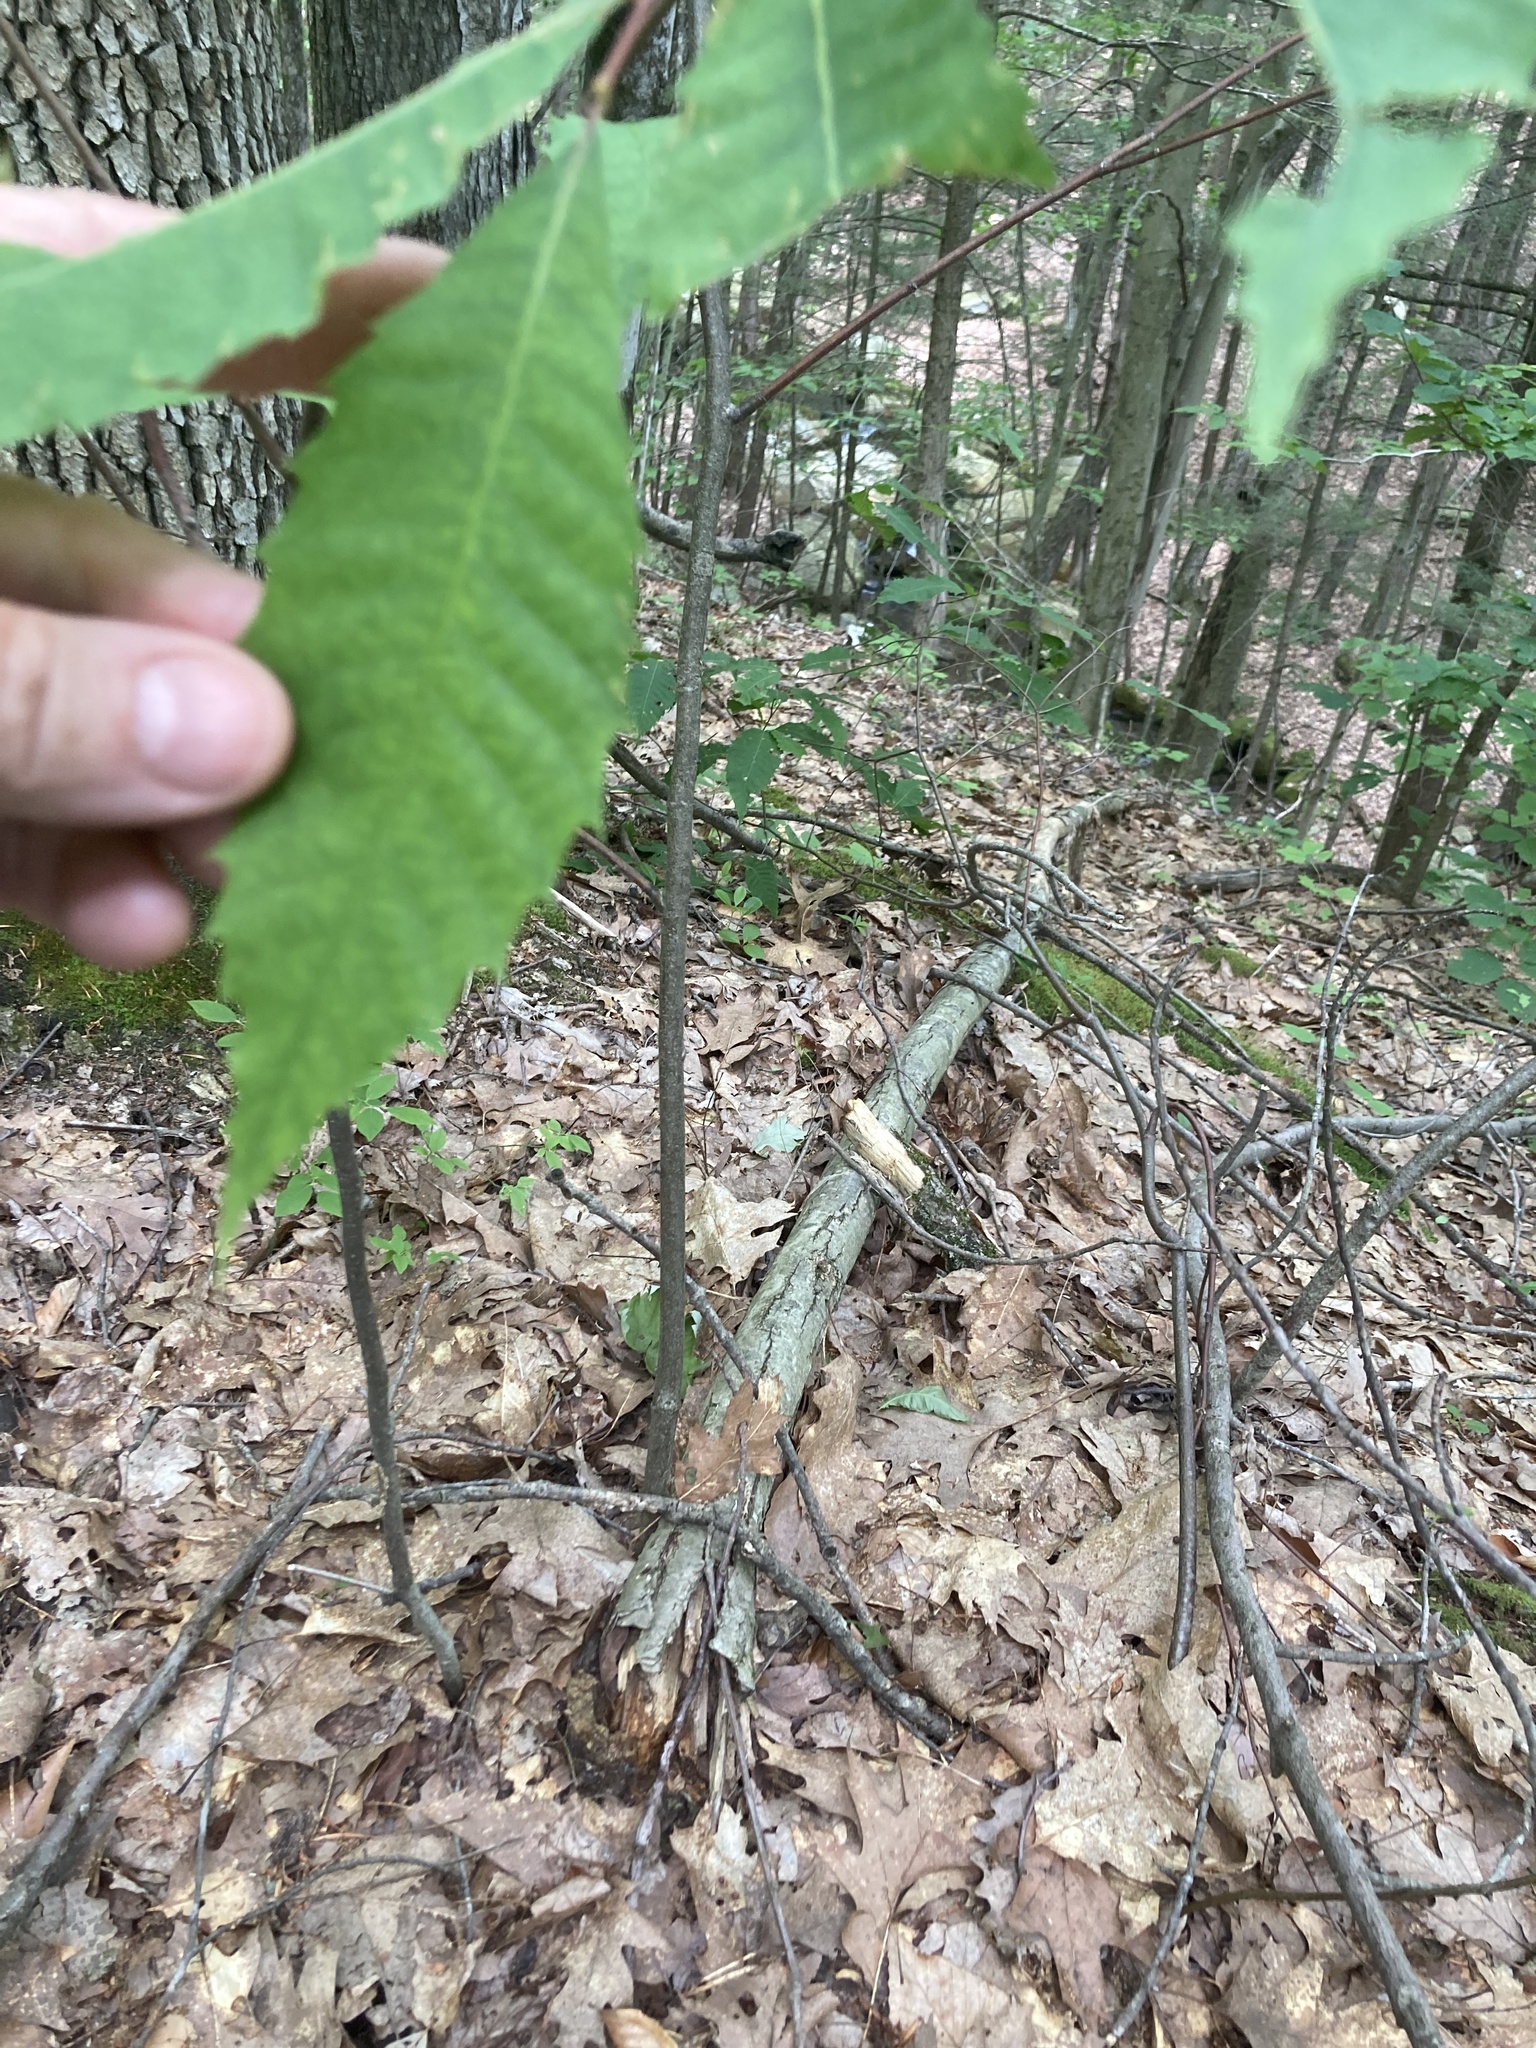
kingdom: Plantae
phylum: Tracheophyta
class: Magnoliopsida
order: Fagales
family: Fagaceae
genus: Castanea
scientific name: Castanea dentata
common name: American chestnut
